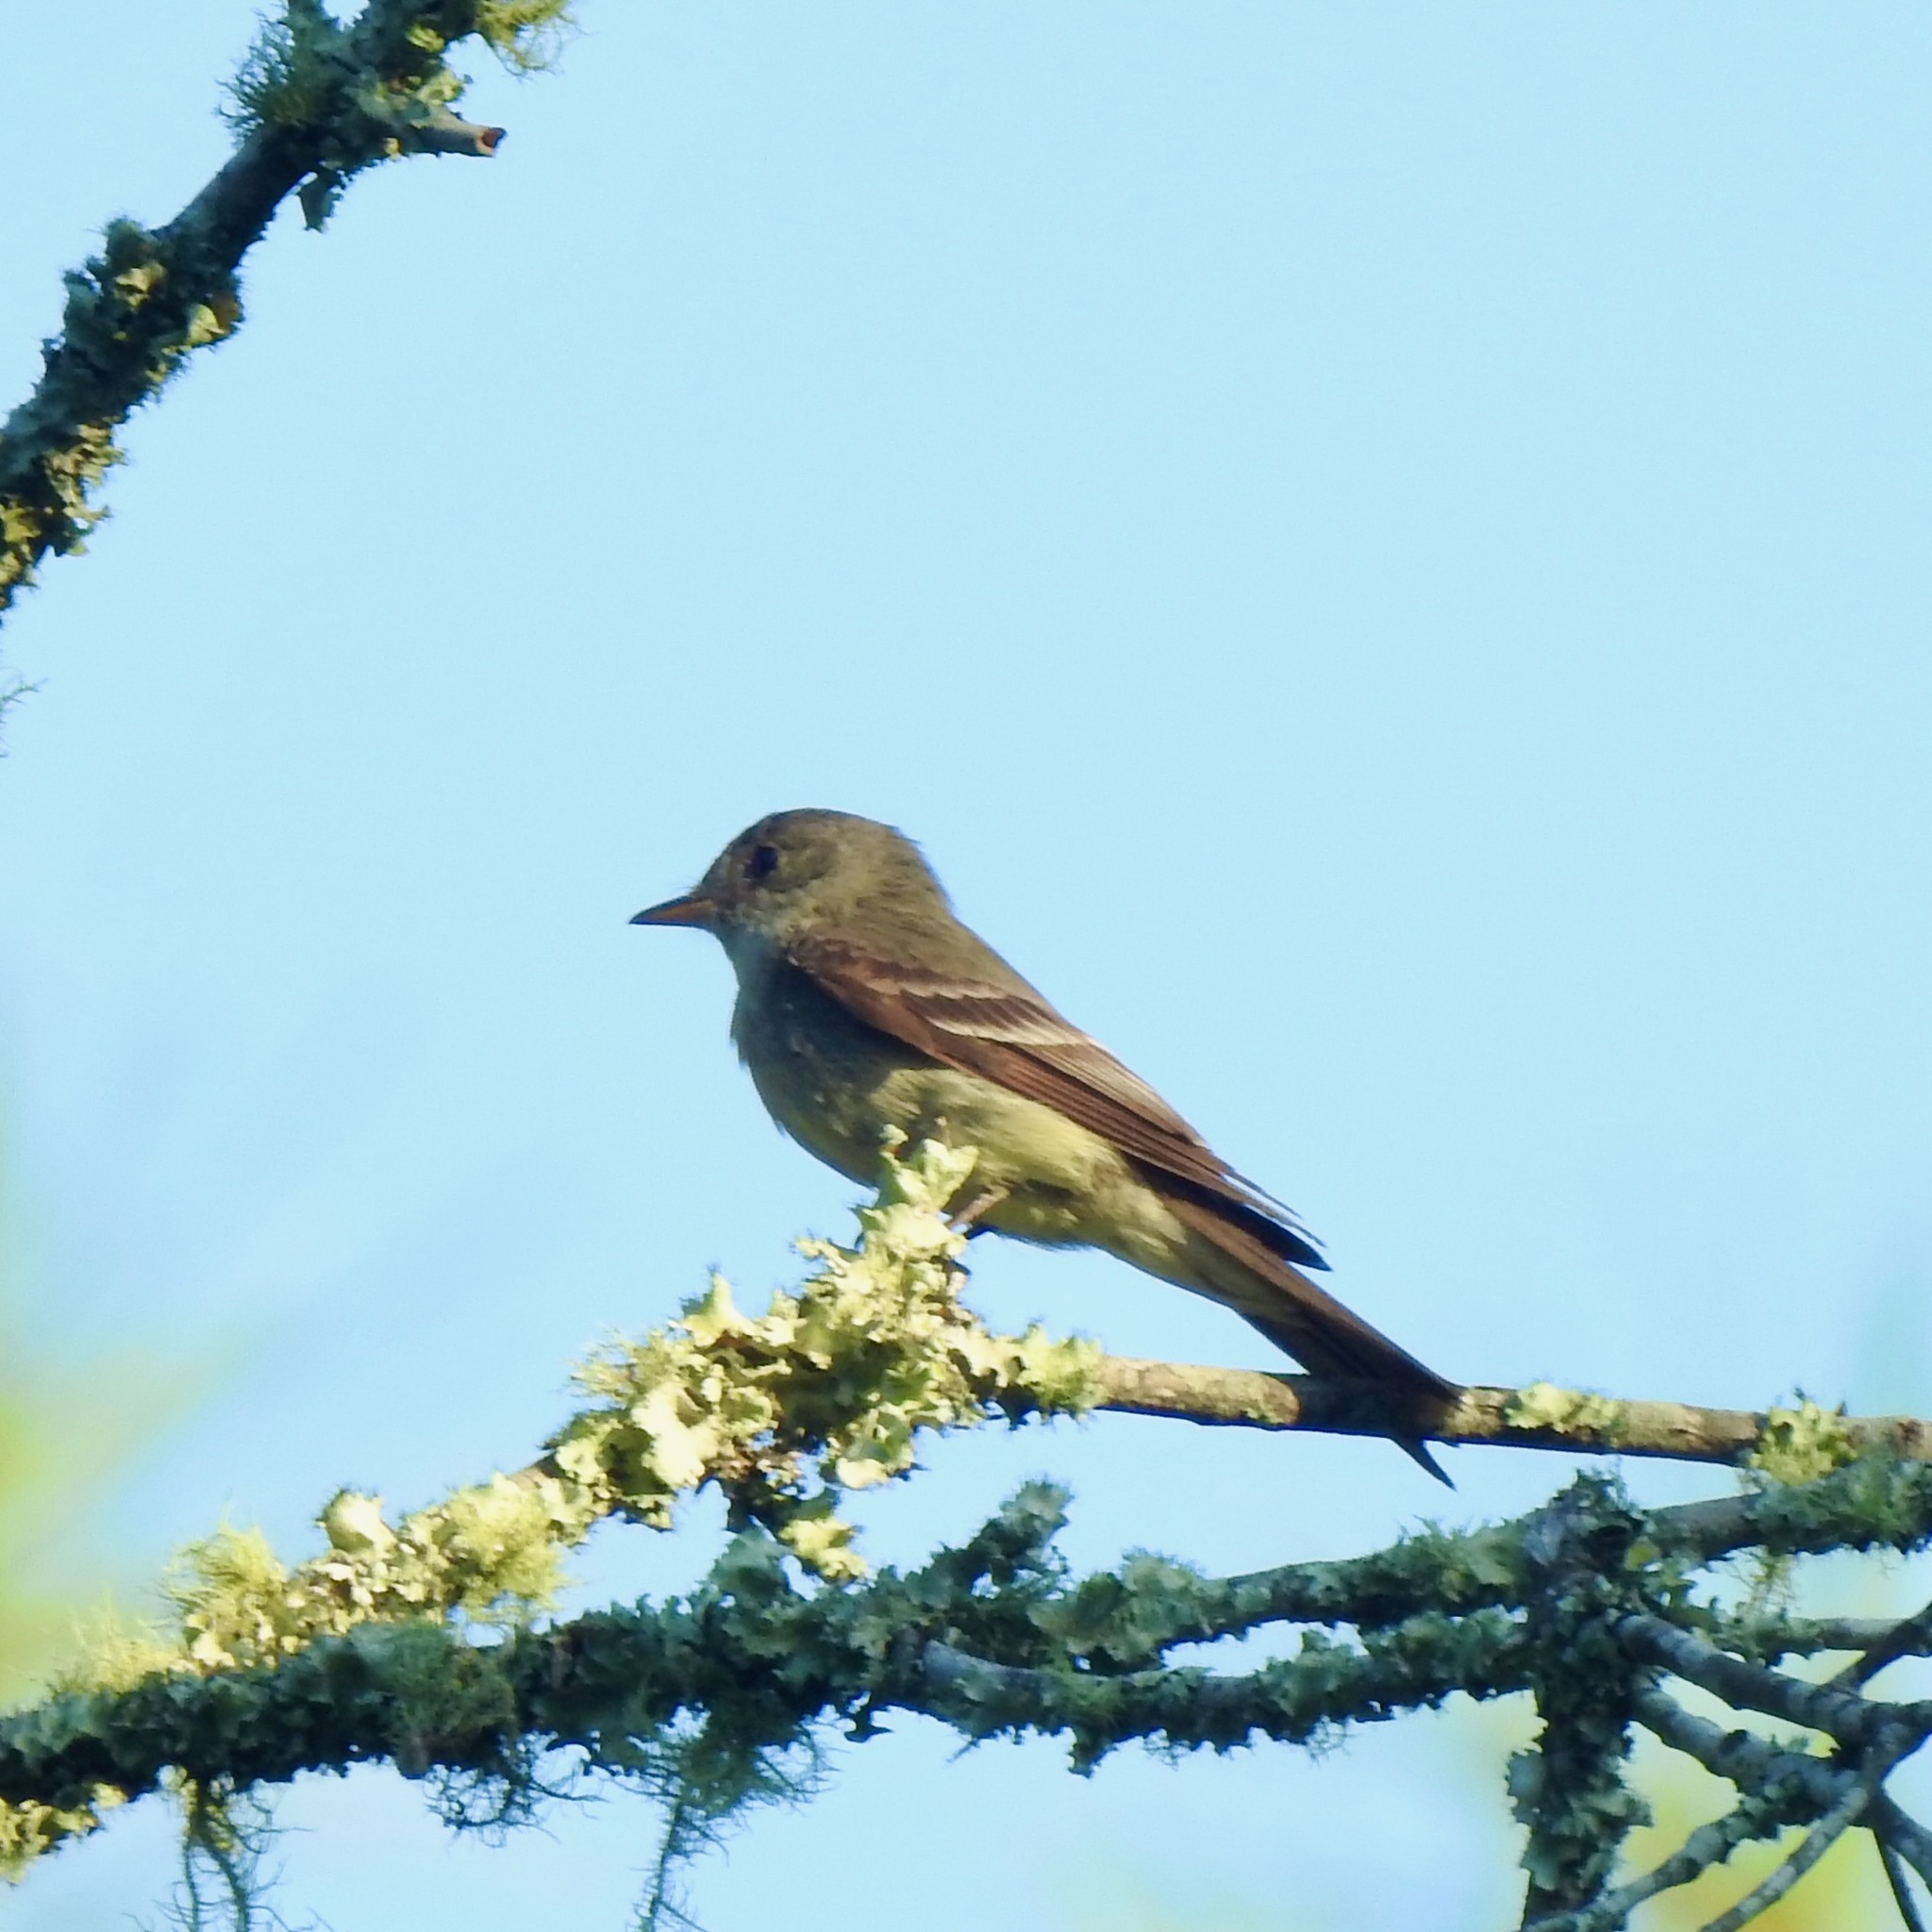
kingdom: Animalia
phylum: Chordata
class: Aves
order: Passeriformes
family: Tyrannidae
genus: Contopus
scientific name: Contopus virens
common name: Eastern wood-pewee
